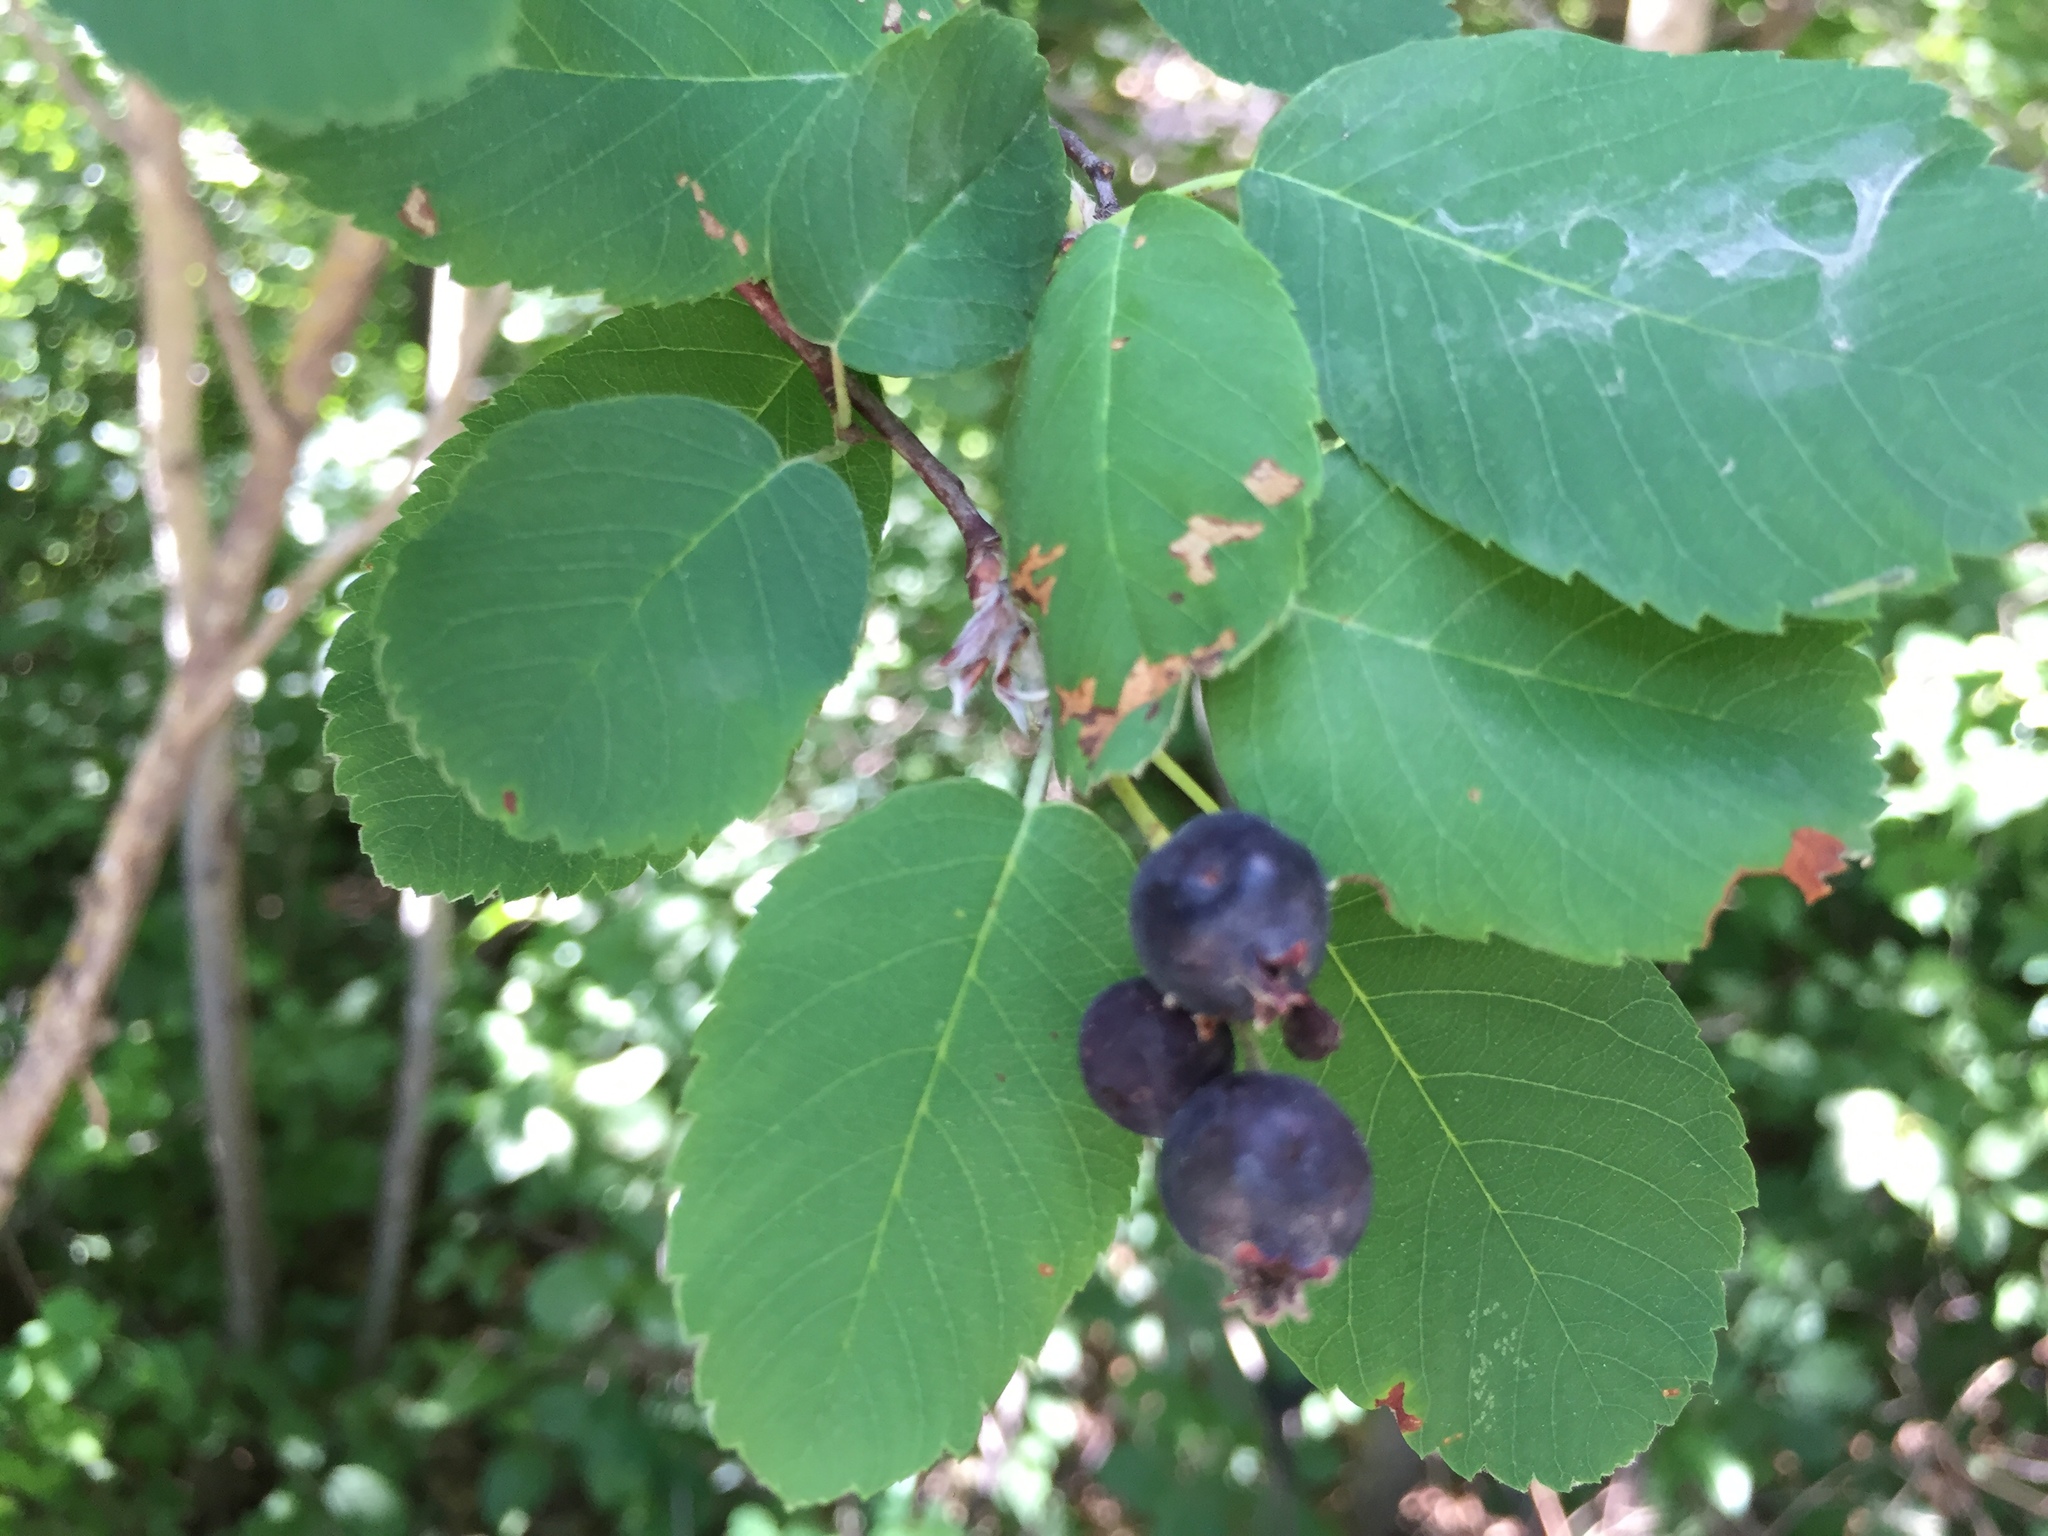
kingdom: Plantae
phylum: Tracheophyta
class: Magnoliopsida
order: Rosales
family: Rosaceae
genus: Amelanchier
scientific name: Amelanchier alnifolia
